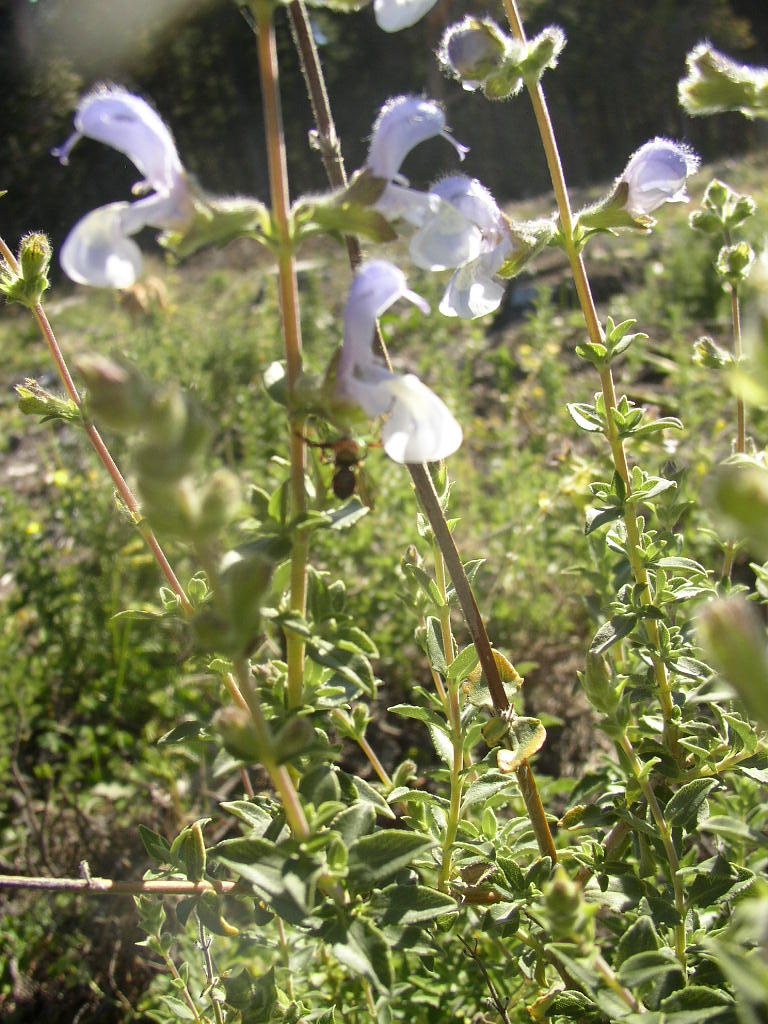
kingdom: Plantae
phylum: Tracheophyta
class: Magnoliopsida
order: Lamiales
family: Lamiaceae
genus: Salvia
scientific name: Salvia africana
